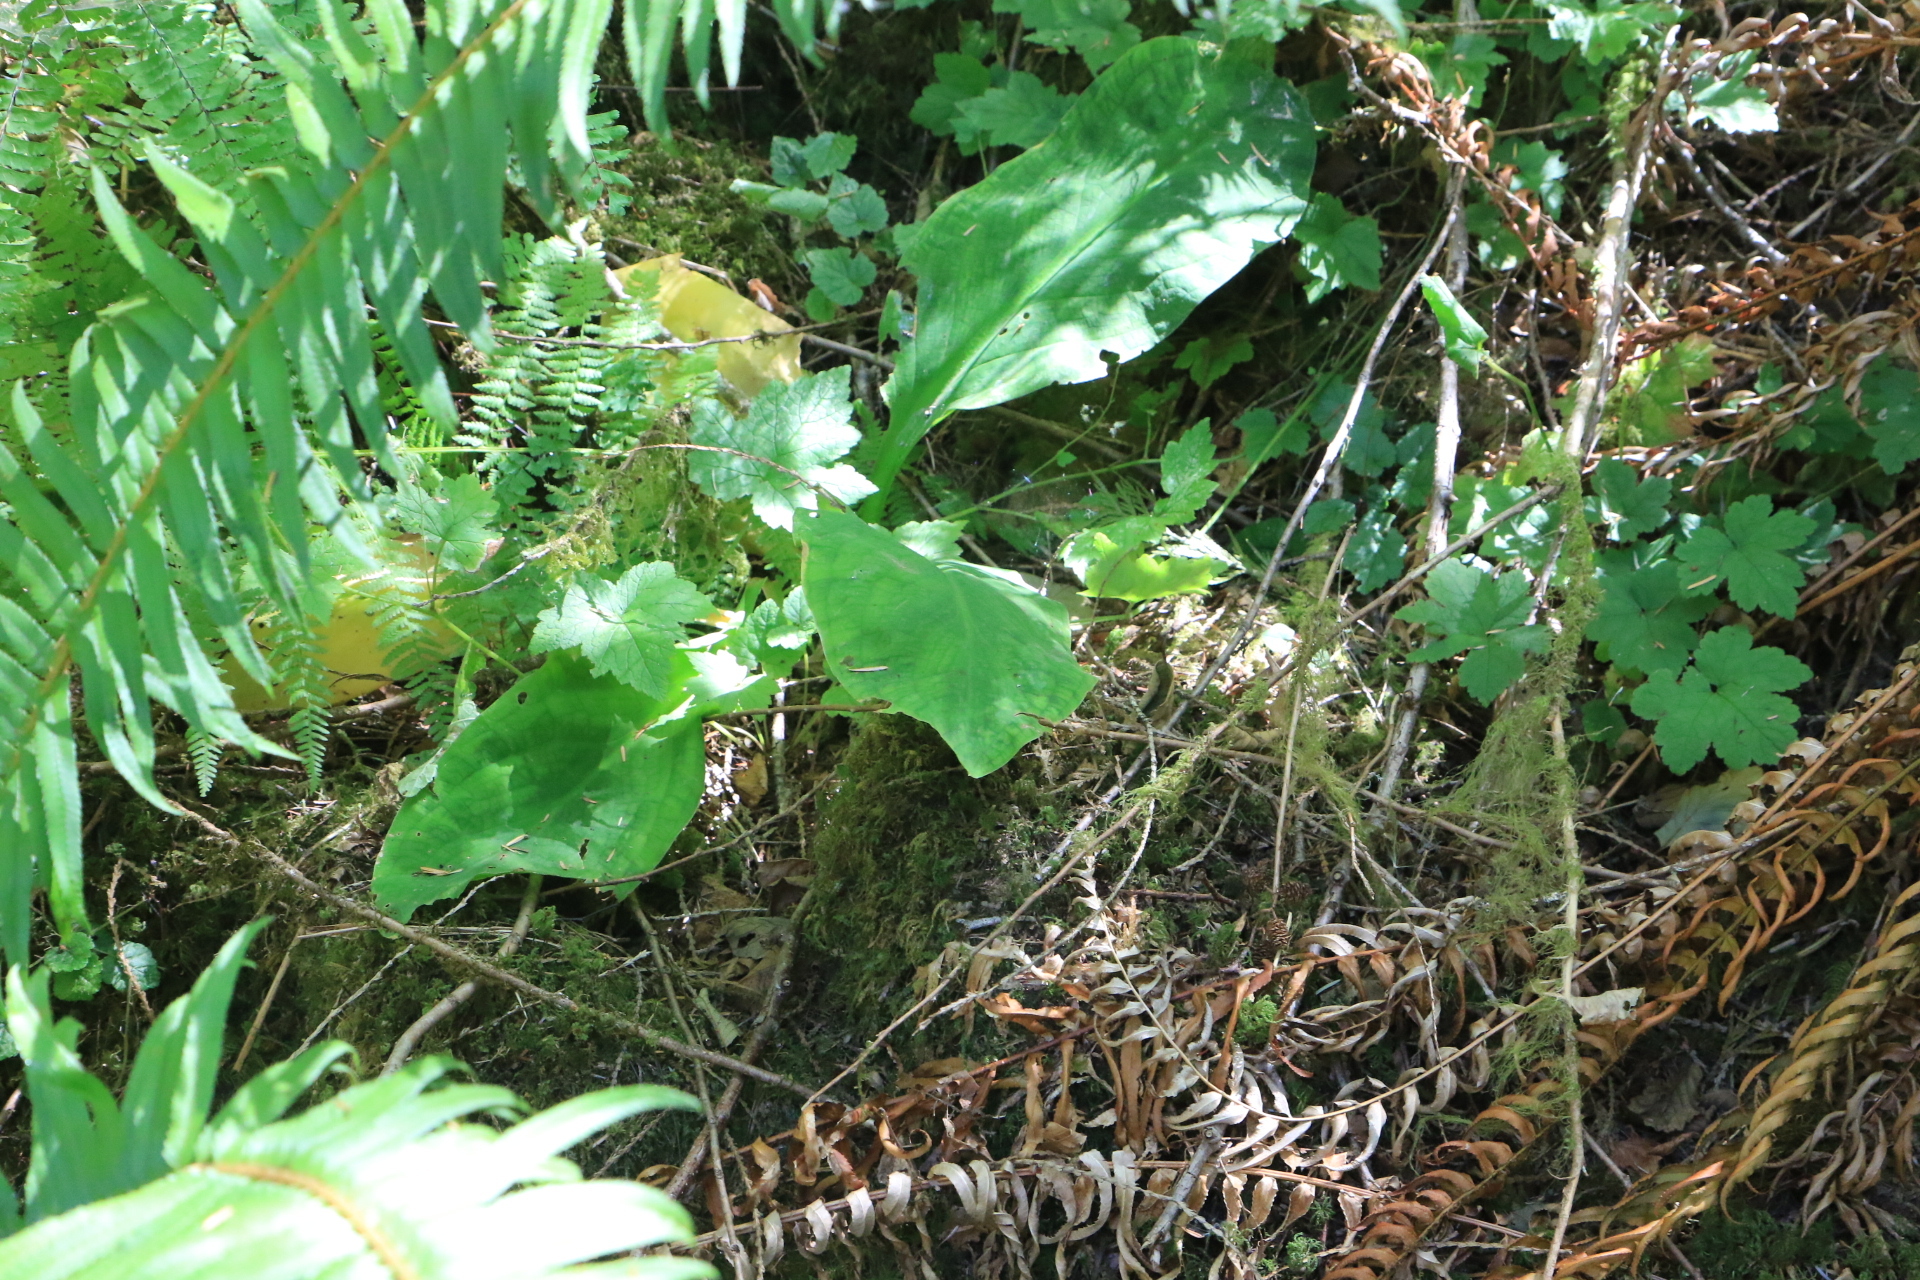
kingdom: Plantae
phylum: Tracheophyta
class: Liliopsida
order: Alismatales
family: Araceae
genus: Lysichiton
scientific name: Lysichiton americanus
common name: American skunk cabbage
